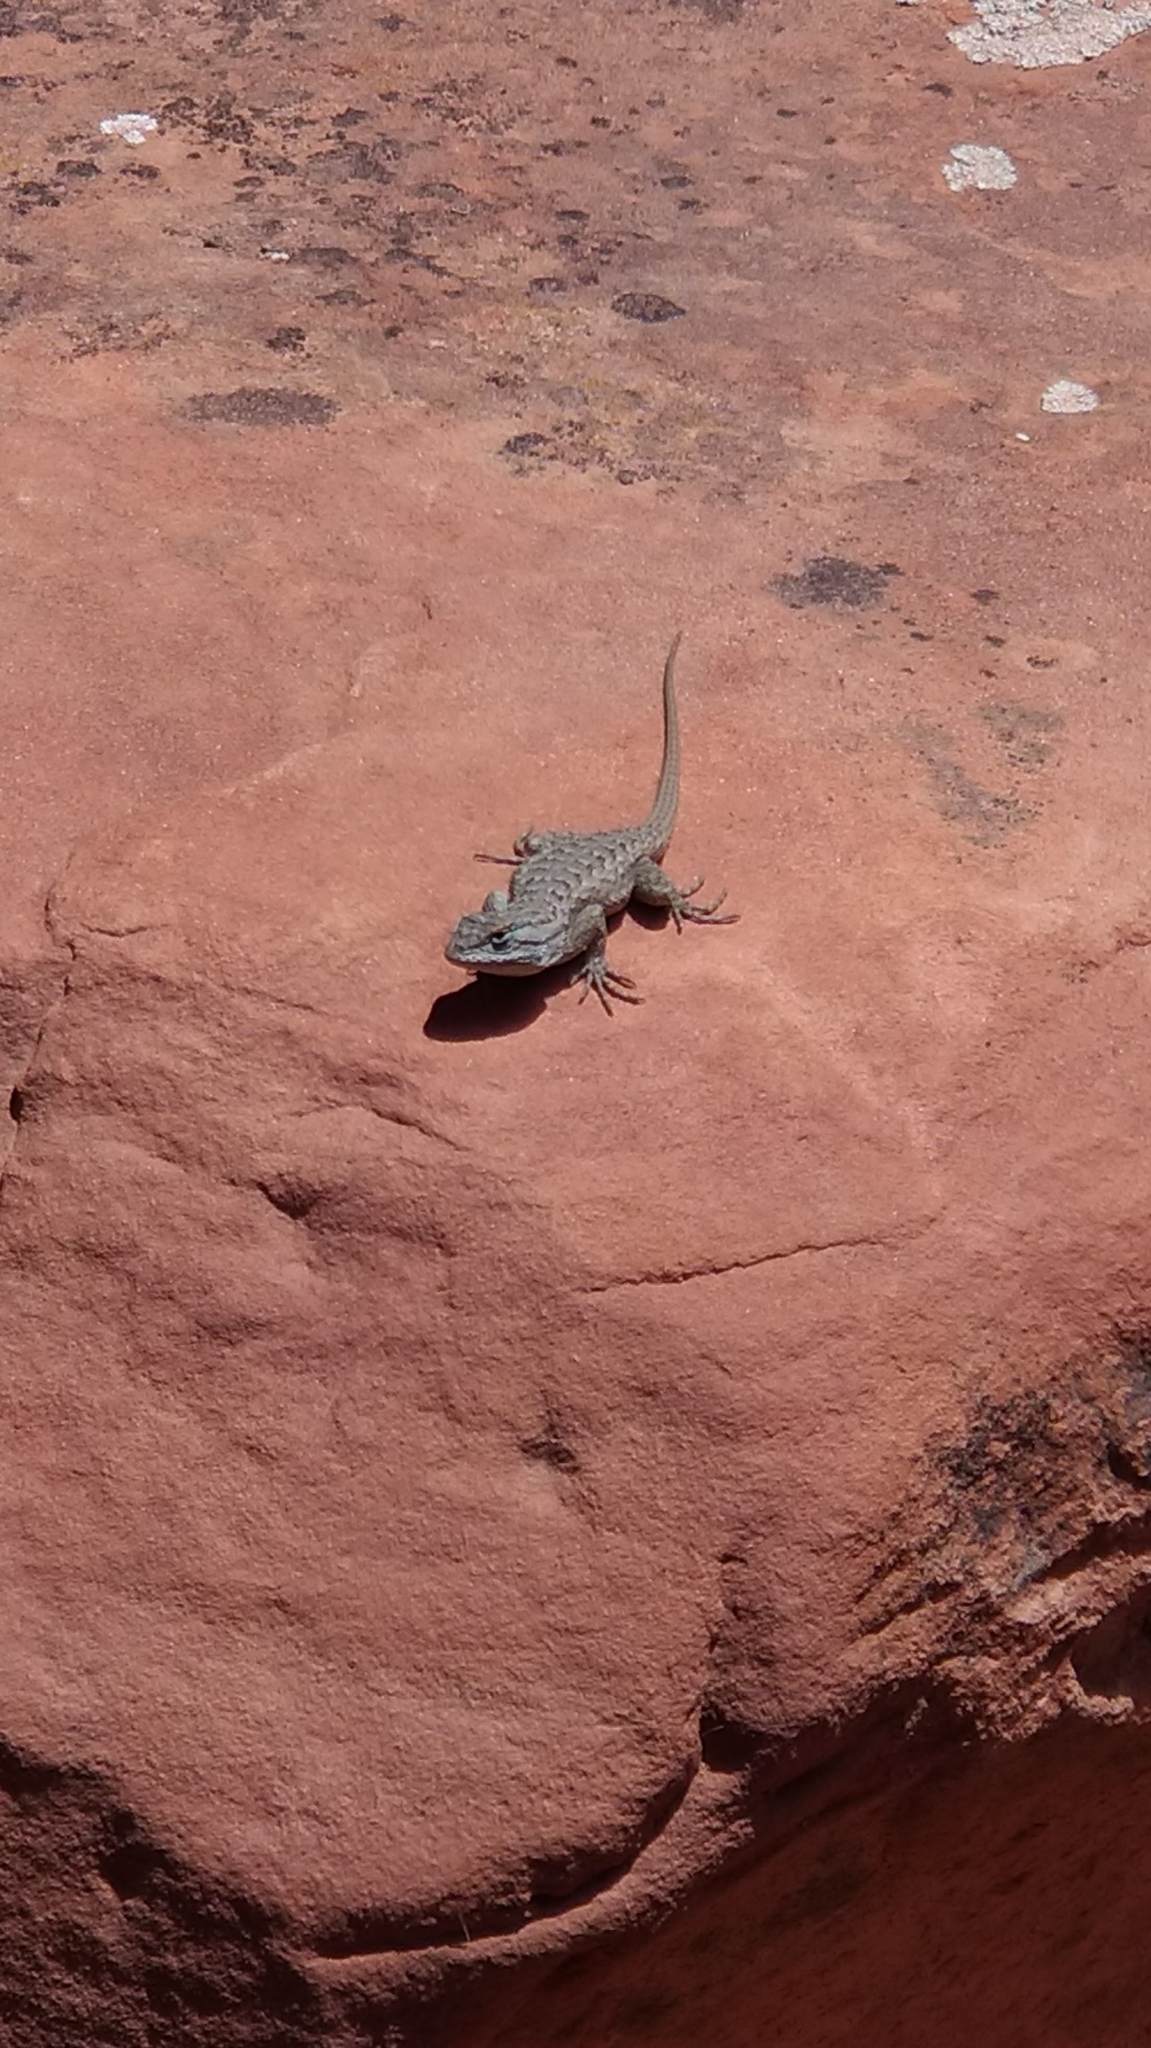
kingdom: Animalia
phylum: Chordata
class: Squamata
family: Phrynosomatidae
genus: Sceloporus
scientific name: Sceloporus tristichus
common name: Plateau fence lizard
